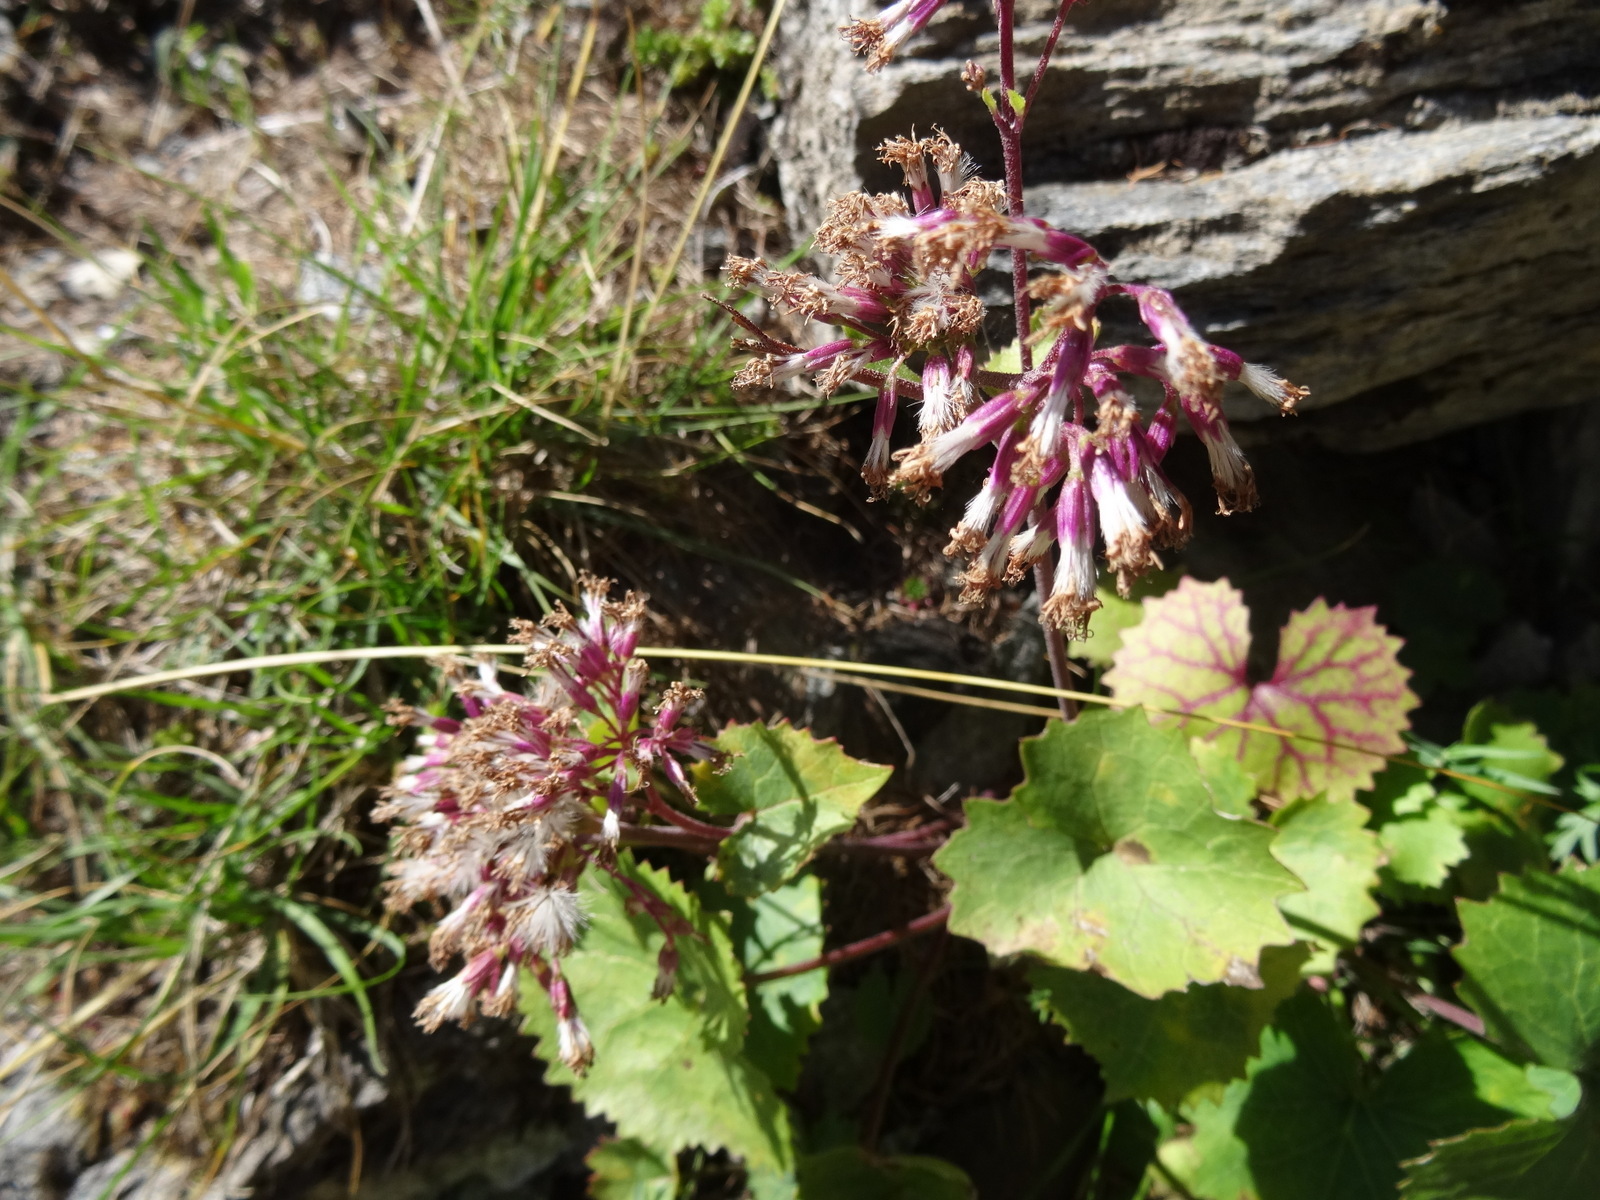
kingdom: Plantae
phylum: Tracheophyta
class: Magnoliopsida
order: Asterales
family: Asteraceae
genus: Adenostyles
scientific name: Adenostyles alpina
